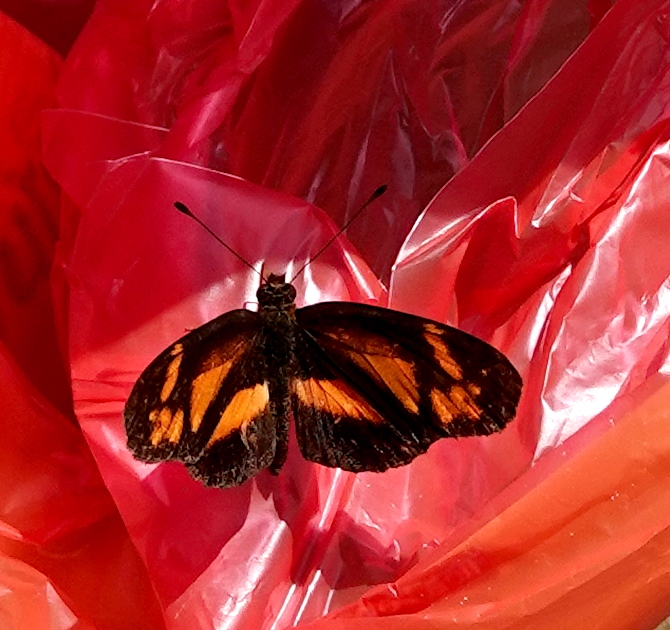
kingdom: Animalia
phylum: Arthropoda
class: Insecta
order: Lepidoptera
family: Nymphalidae
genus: Castilia
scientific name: Castilia eranites
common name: Smudged crescent
